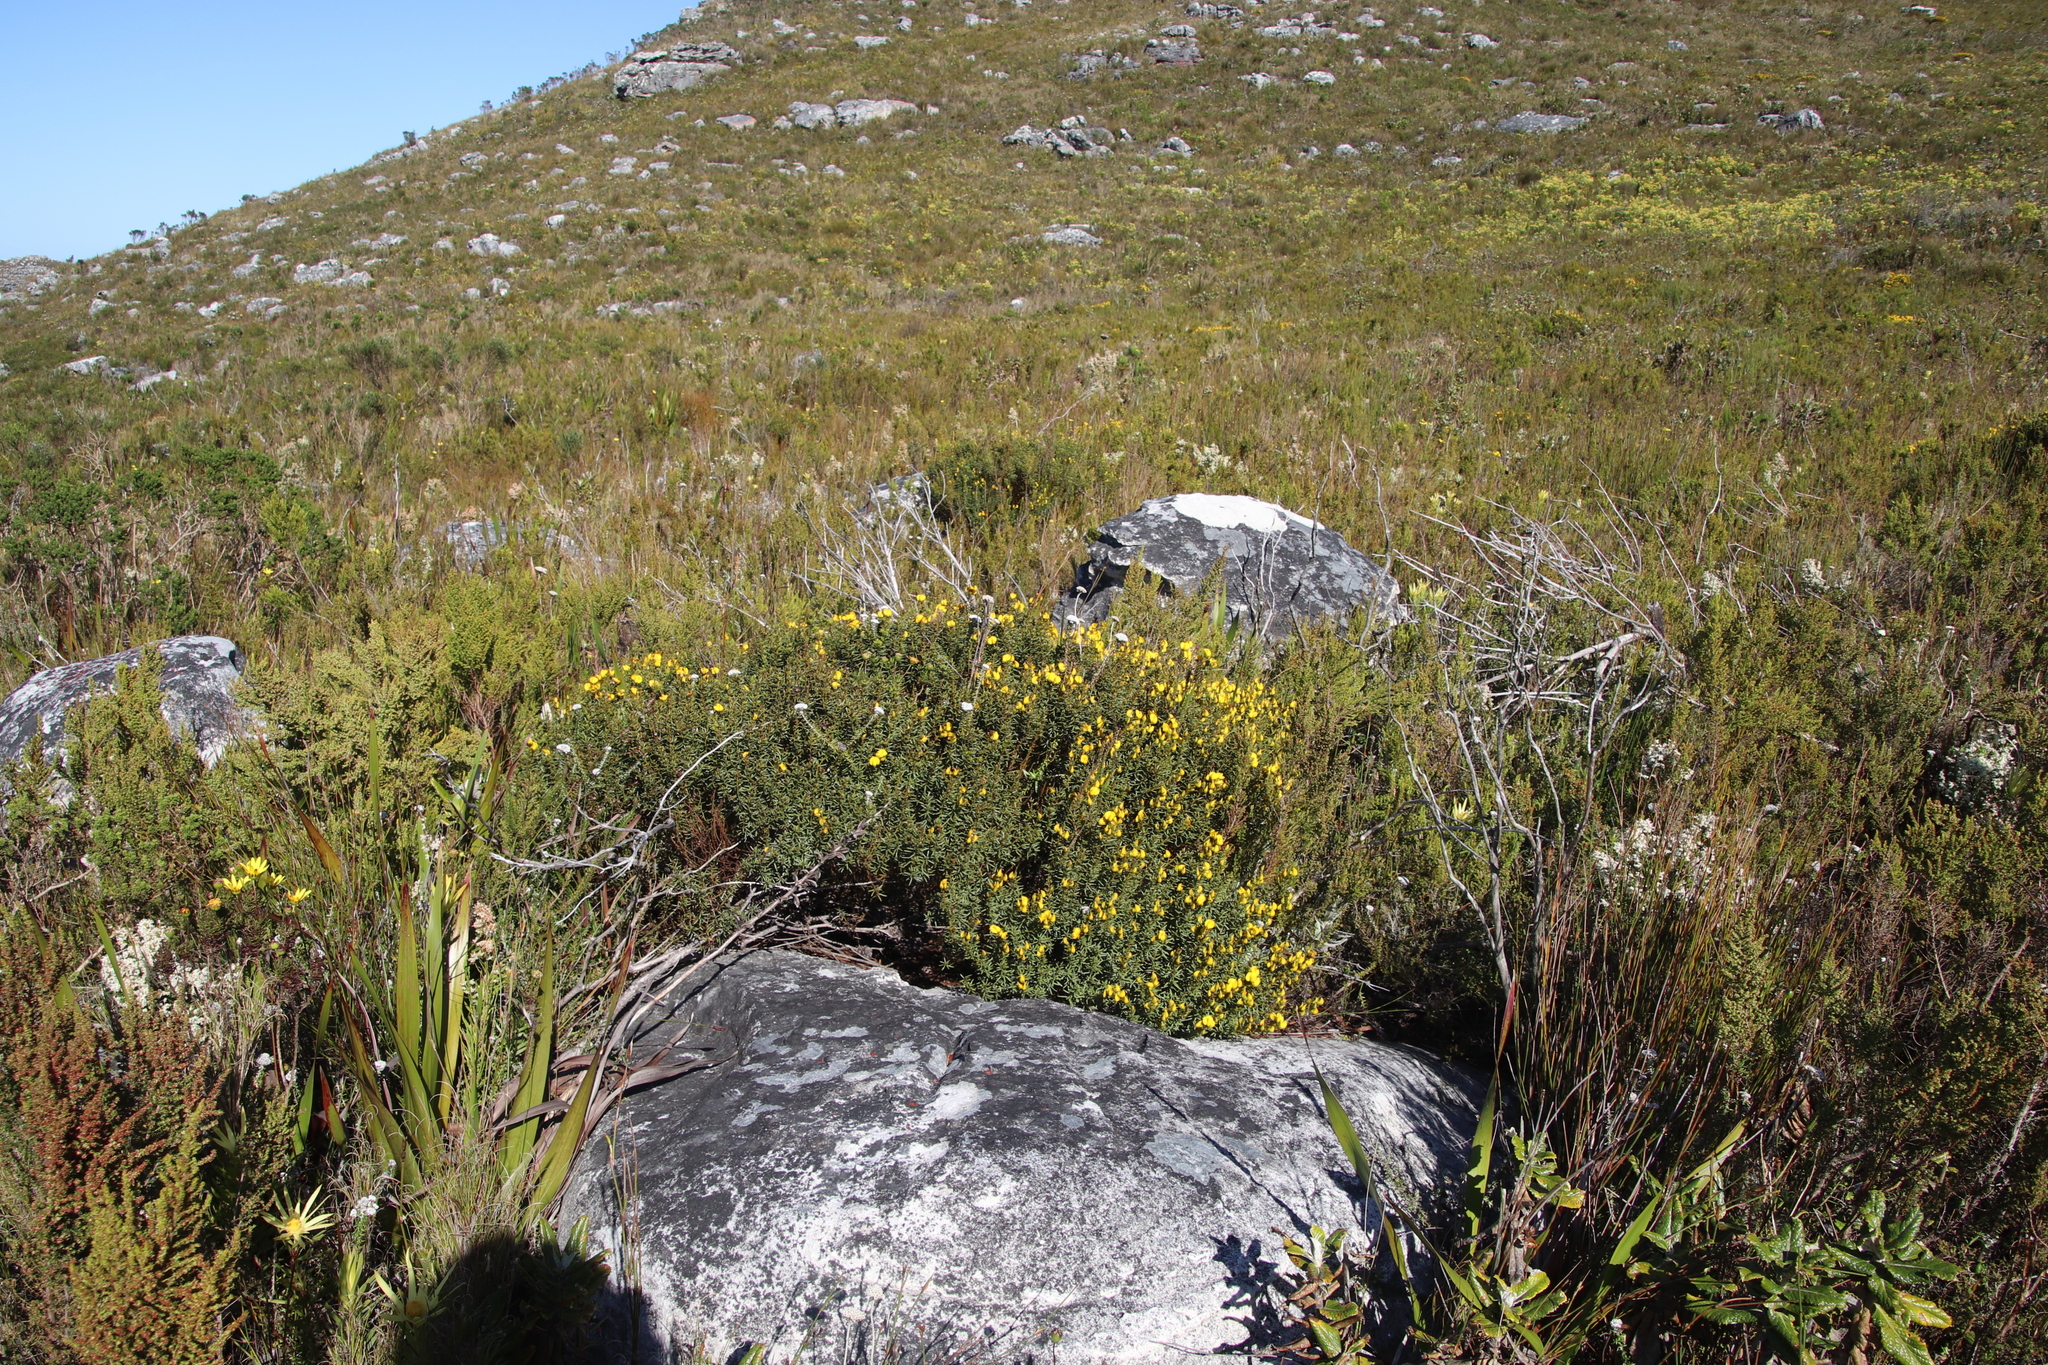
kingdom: Plantae
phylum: Tracheophyta
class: Magnoliopsida
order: Fabales
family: Fabaceae
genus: Cyclopia
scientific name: Cyclopia genistoides
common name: Honeybush tea
